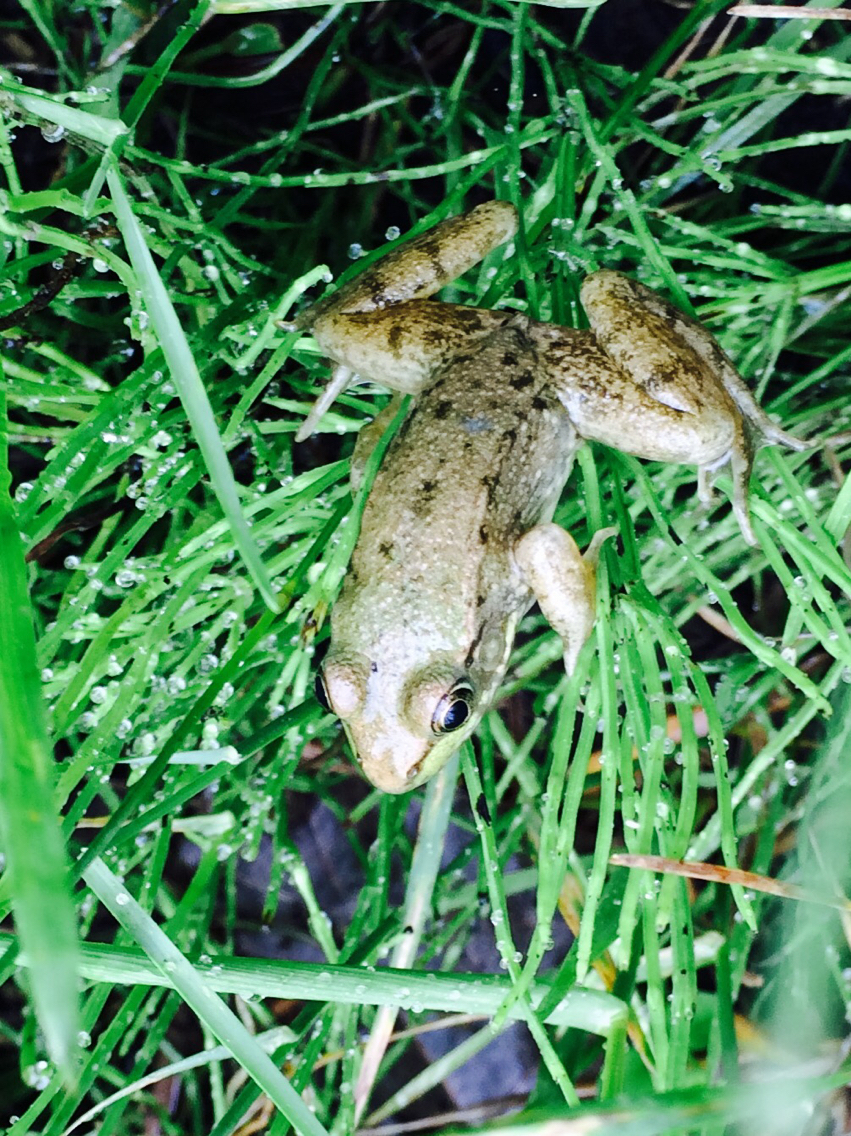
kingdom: Animalia
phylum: Chordata
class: Amphibia
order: Anura
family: Ranidae
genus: Lithobates
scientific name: Lithobates clamitans
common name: Green frog
